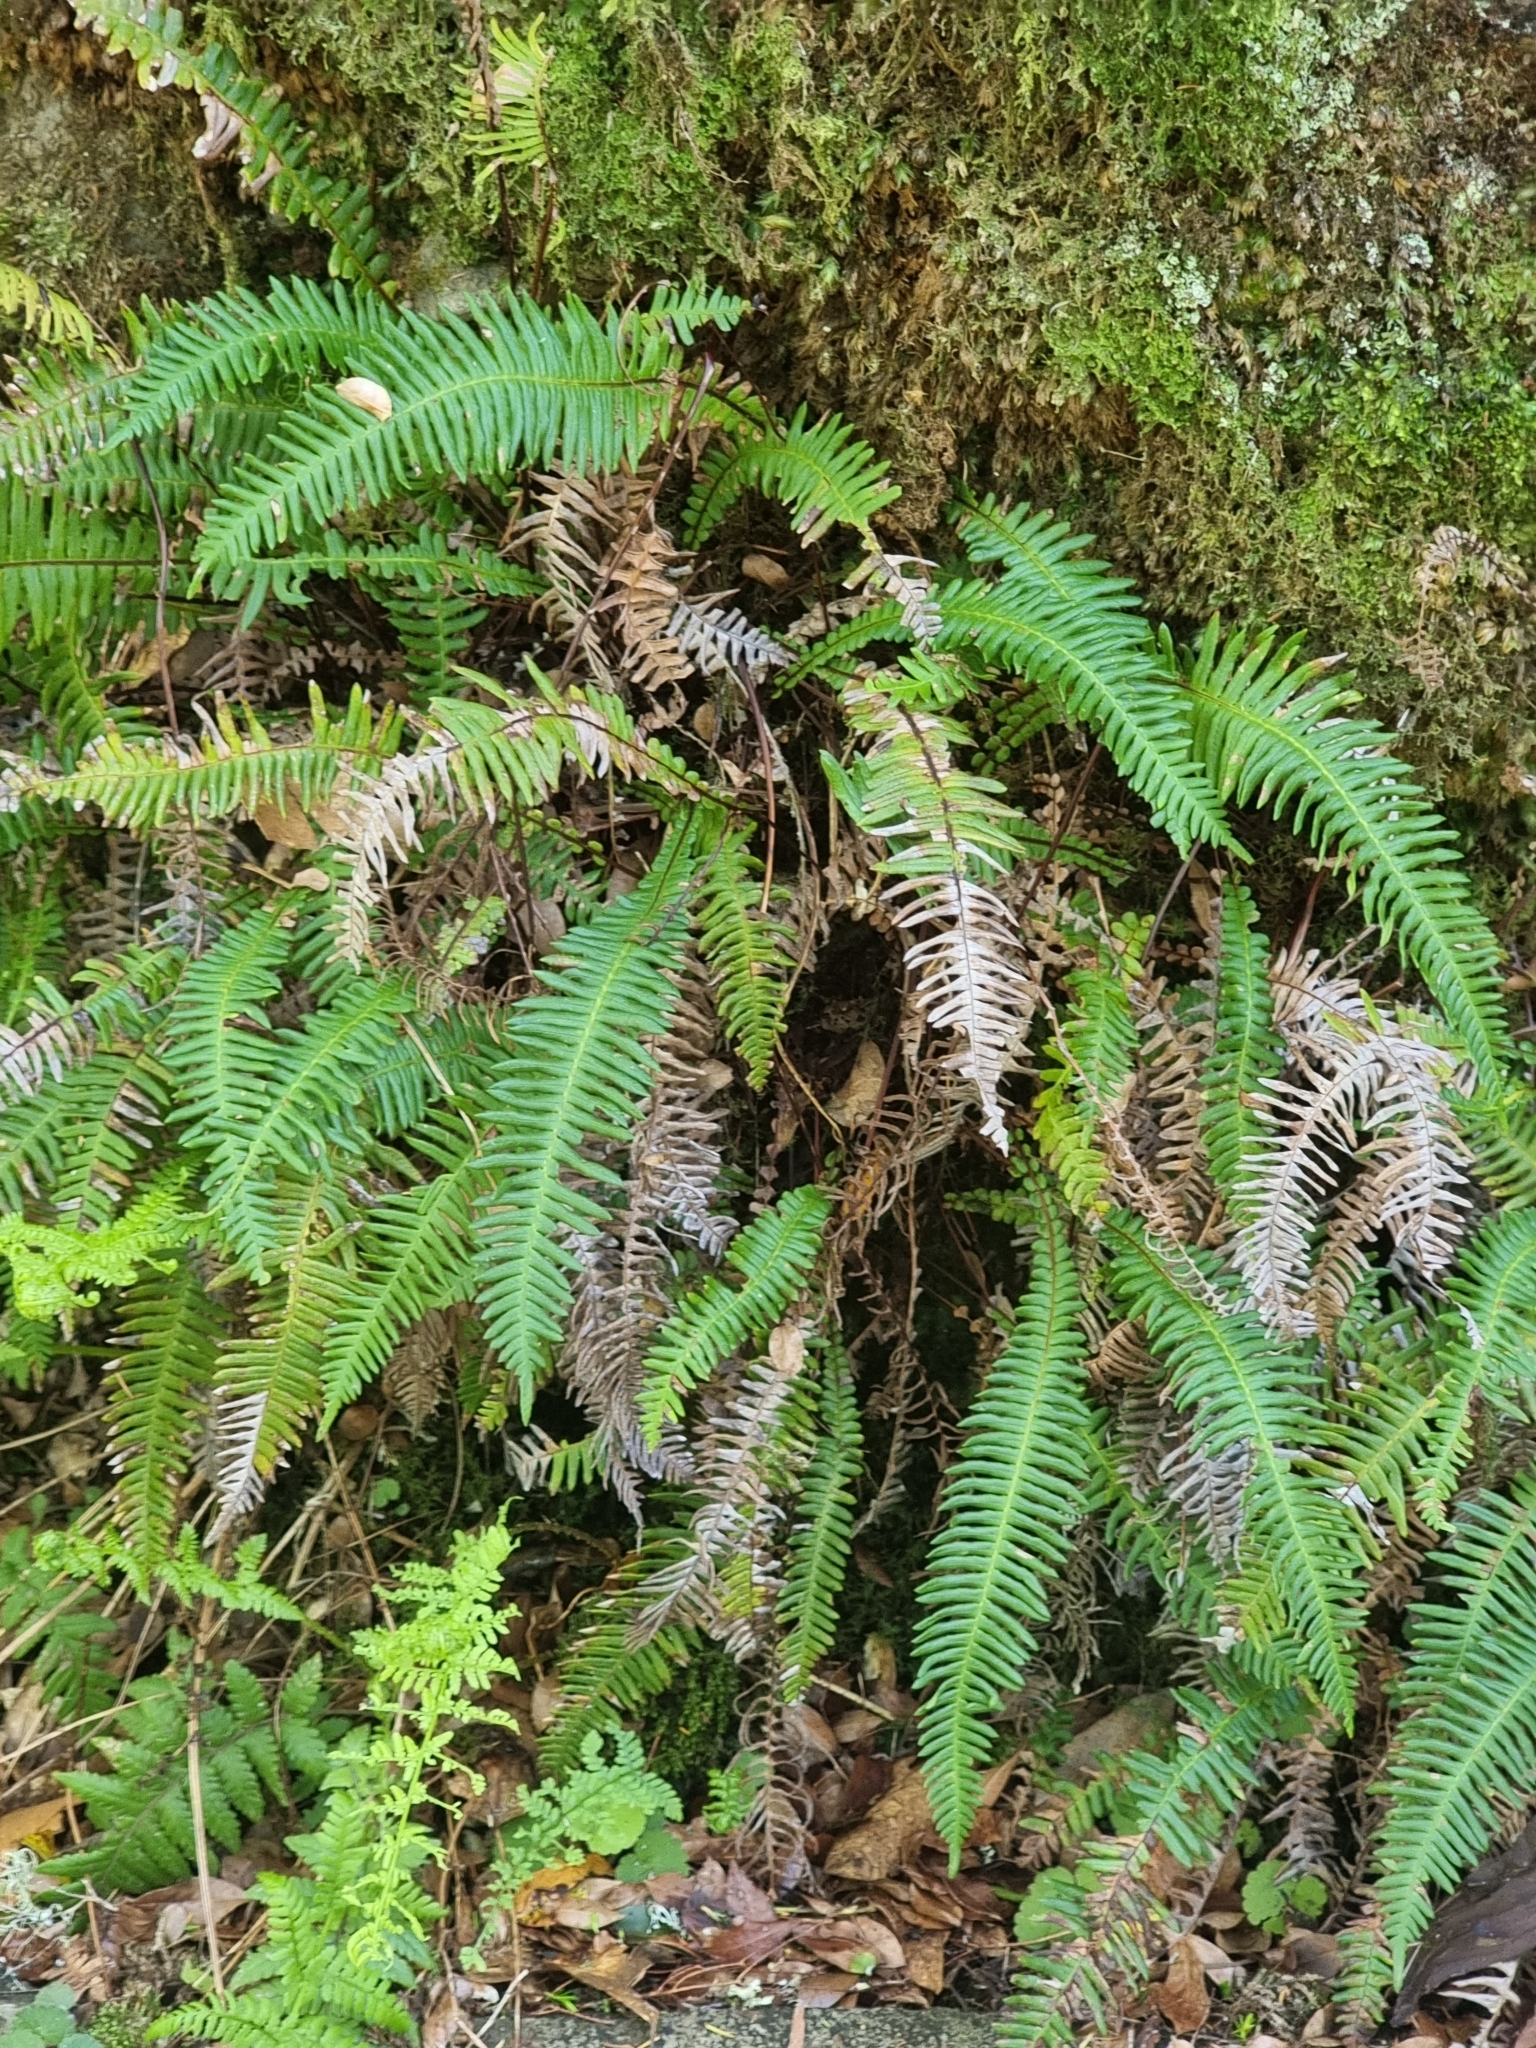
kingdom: Plantae
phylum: Tracheophyta
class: Polypodiopsida
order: Polypodiales
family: Blechnaceae
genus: Struthiopteris
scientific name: Struthiopteris spicant
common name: Deer fern
